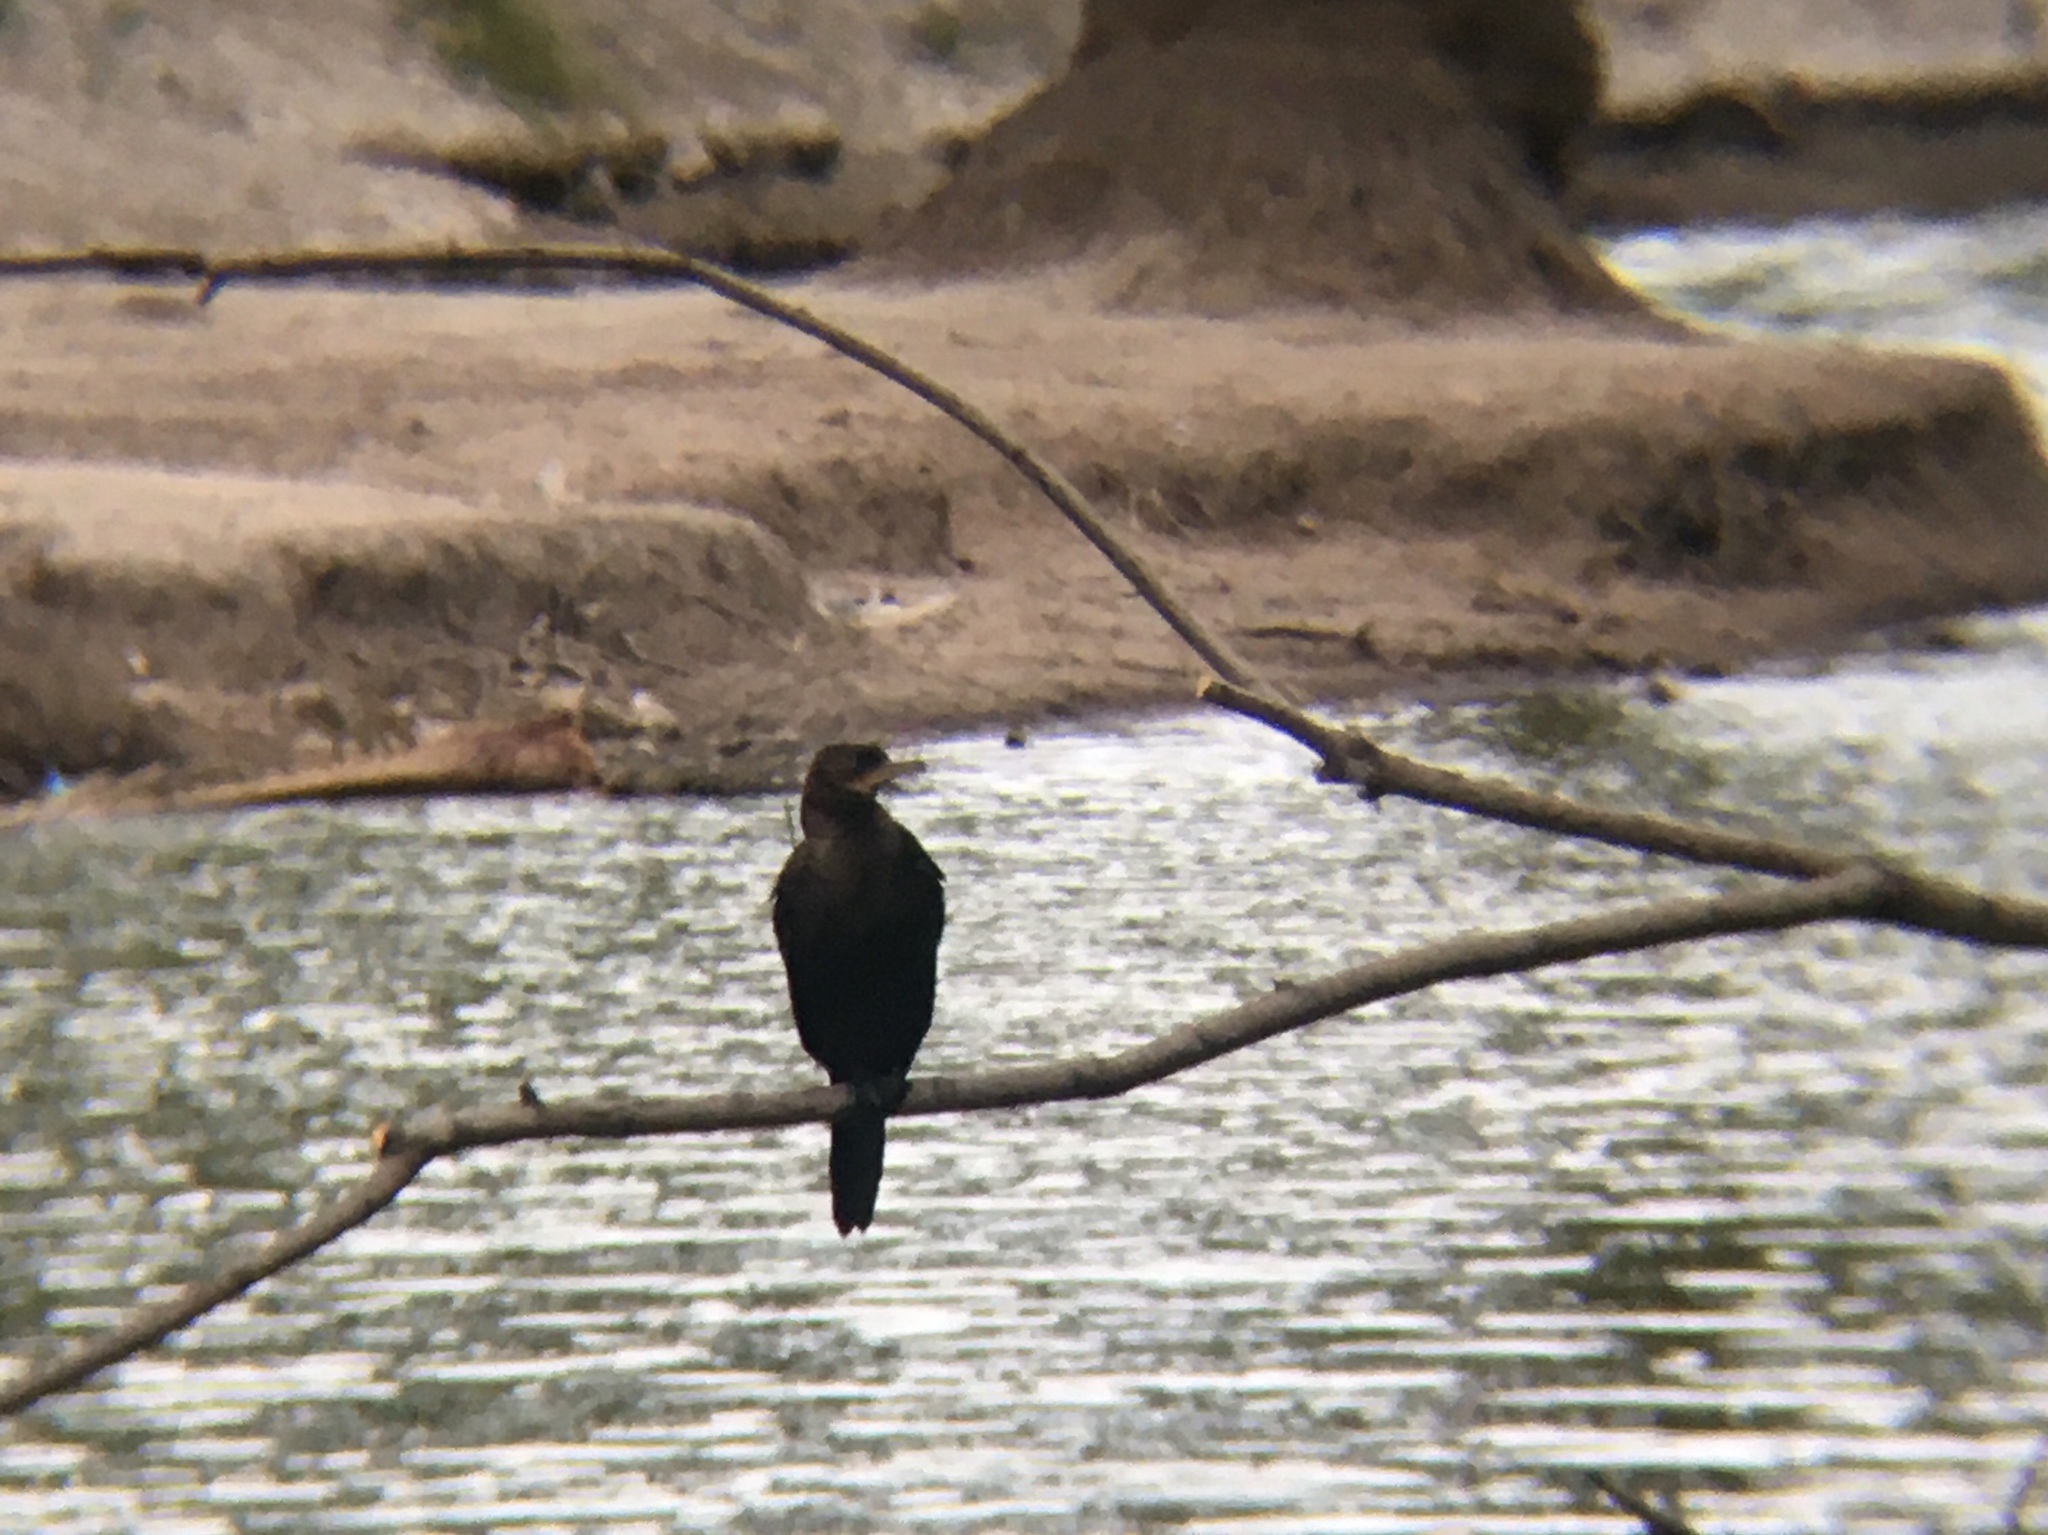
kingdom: Animalia
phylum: Chordata
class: Aves
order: Suliformes
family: Phalacrocoracidae
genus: Phalacrocorax
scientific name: Phalacrocorax brasilianus
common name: Neotropic cormorant
